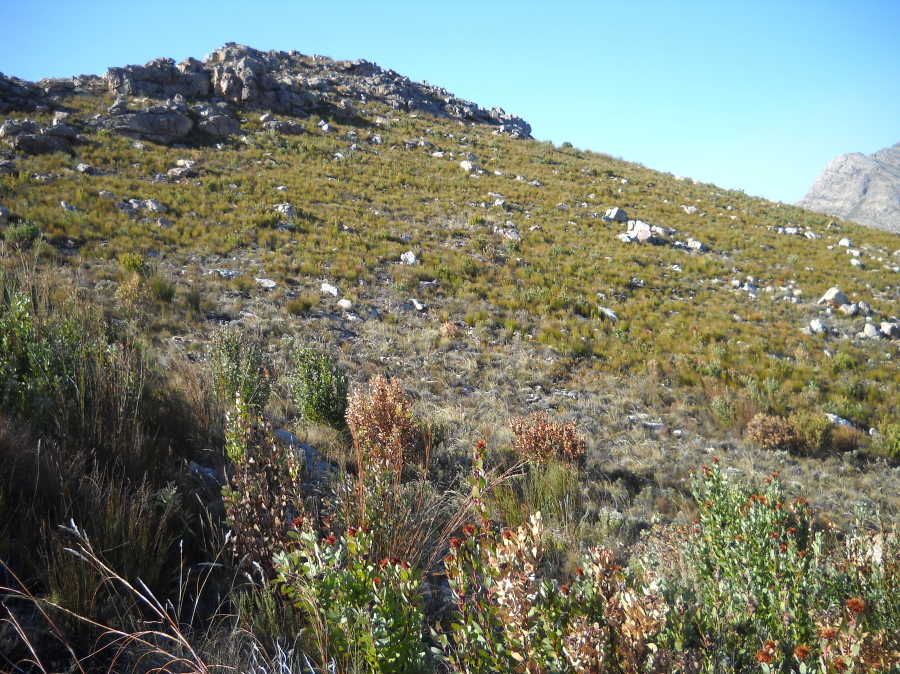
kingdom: Plantae
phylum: Tracheophyta
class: Magnoliopsida
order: Proteales
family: Proteaceae
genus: Protea
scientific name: Protea punctata
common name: Water sugarbush
